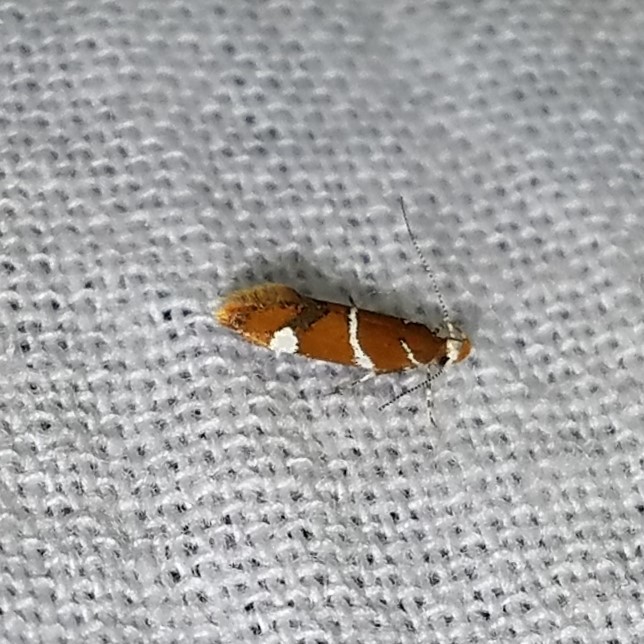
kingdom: Animalia
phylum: Arthropoda
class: Insecta
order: Lepidoptera
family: Oecophoridae
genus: Promalactis
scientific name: Promalactis suzukiella
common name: Moth
